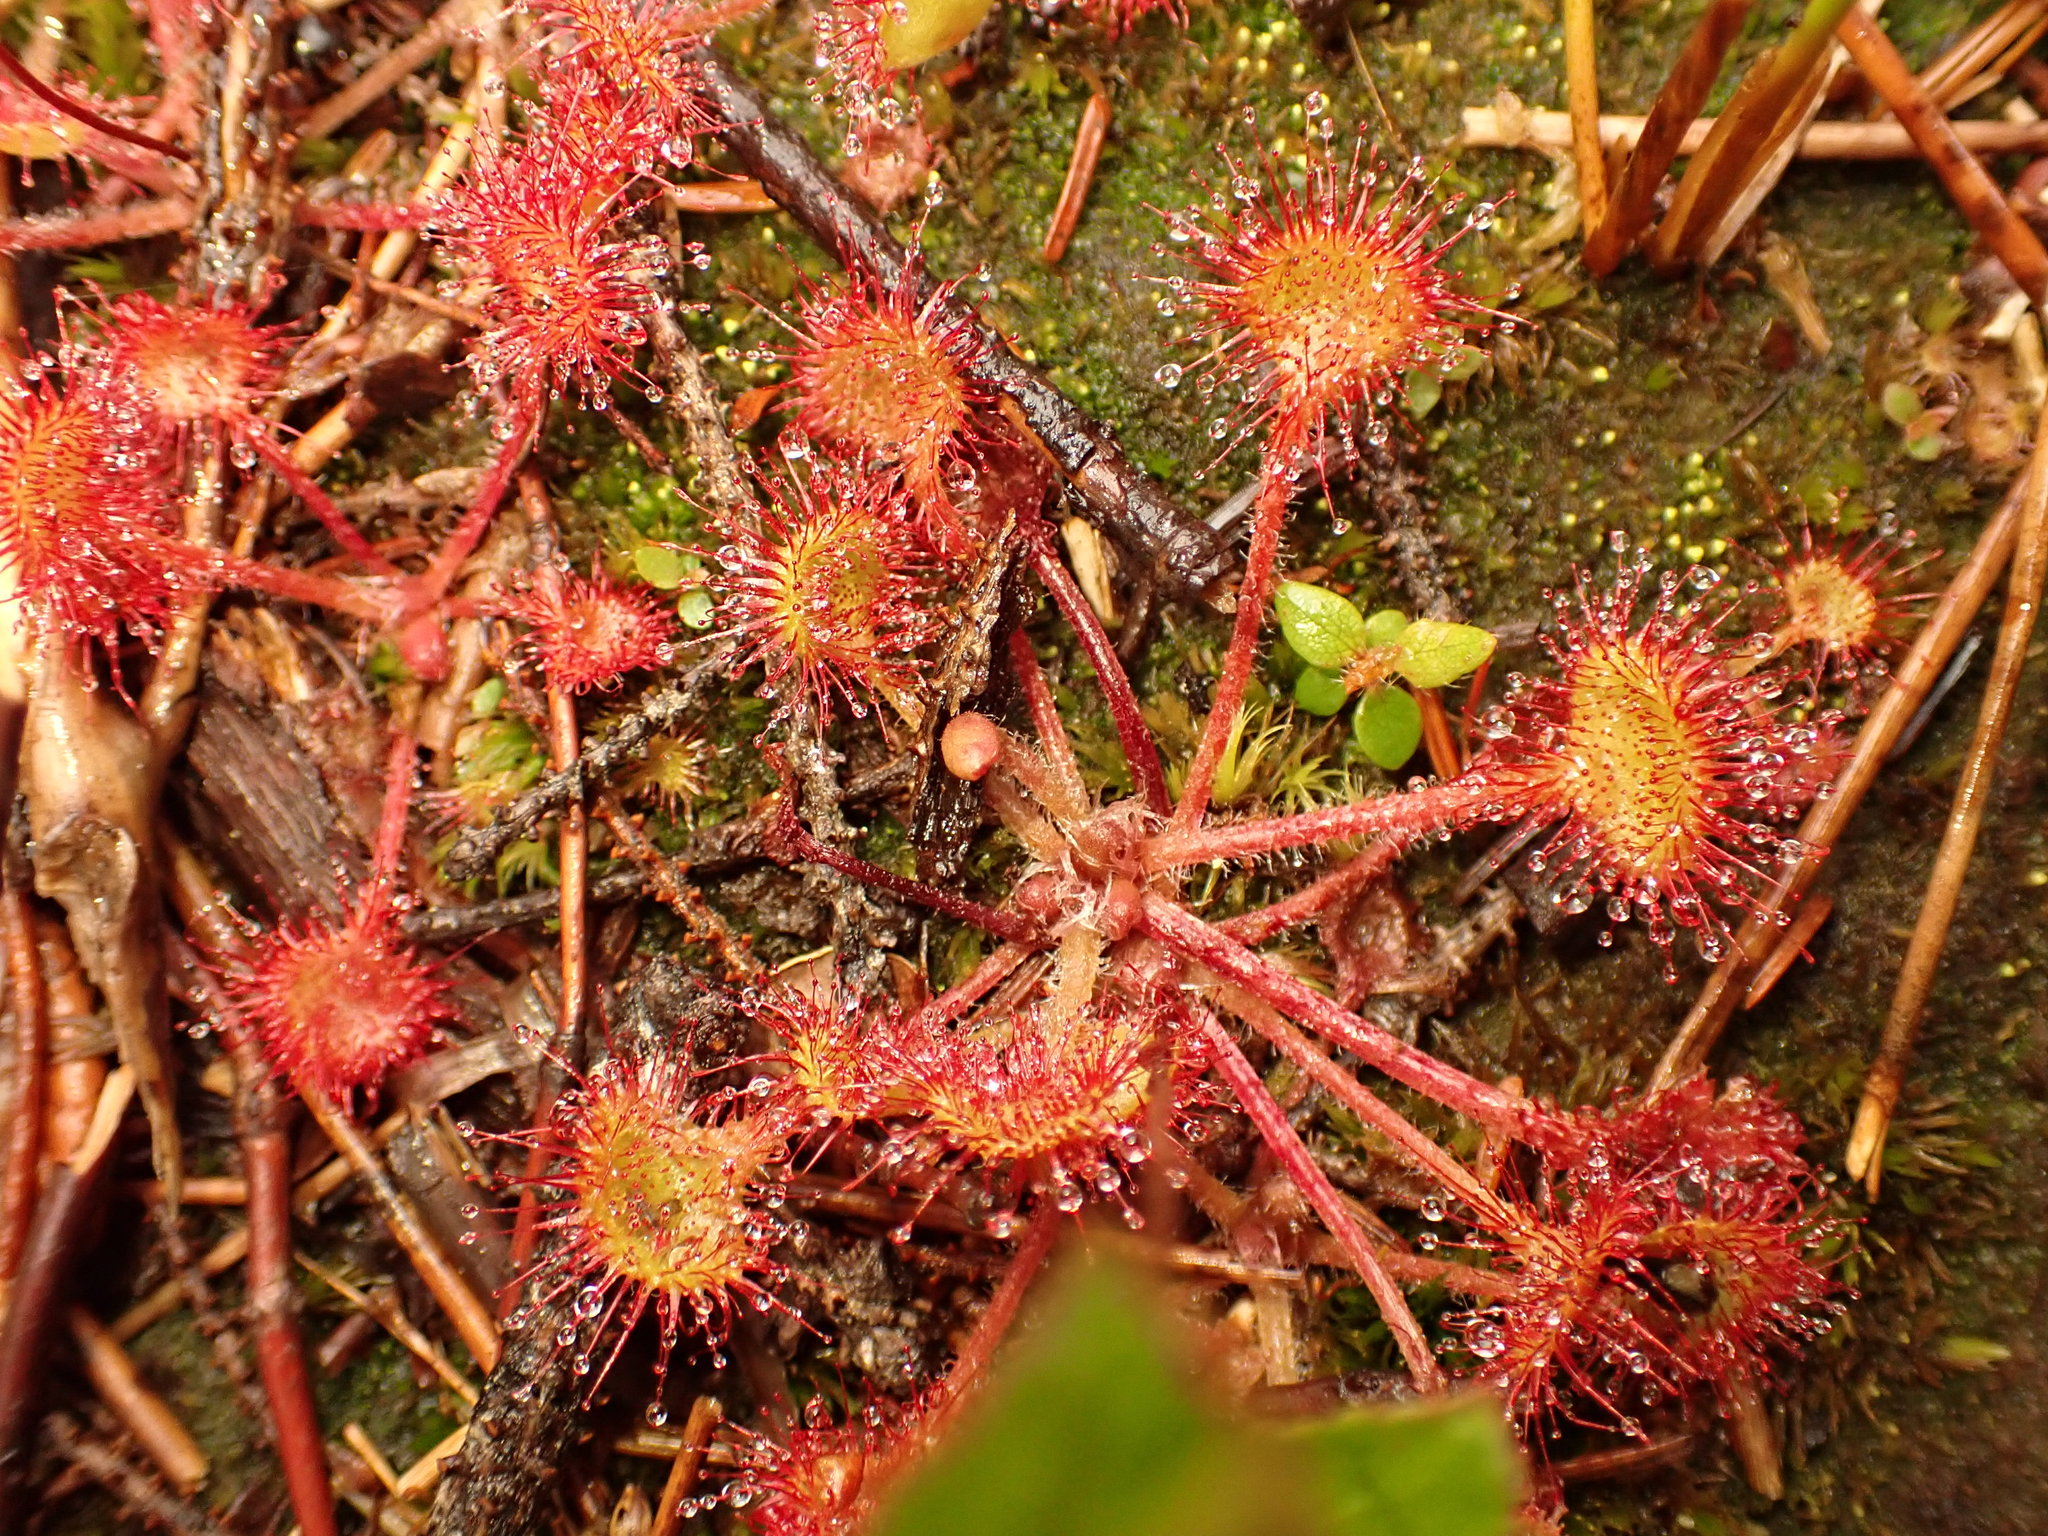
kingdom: Plantae
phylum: Tracheophyta
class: Magnoliopsida
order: Caryophyllales
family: Droseraceae
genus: Drosera
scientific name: Drosera rotundifolia
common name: Round-leaved sundew
